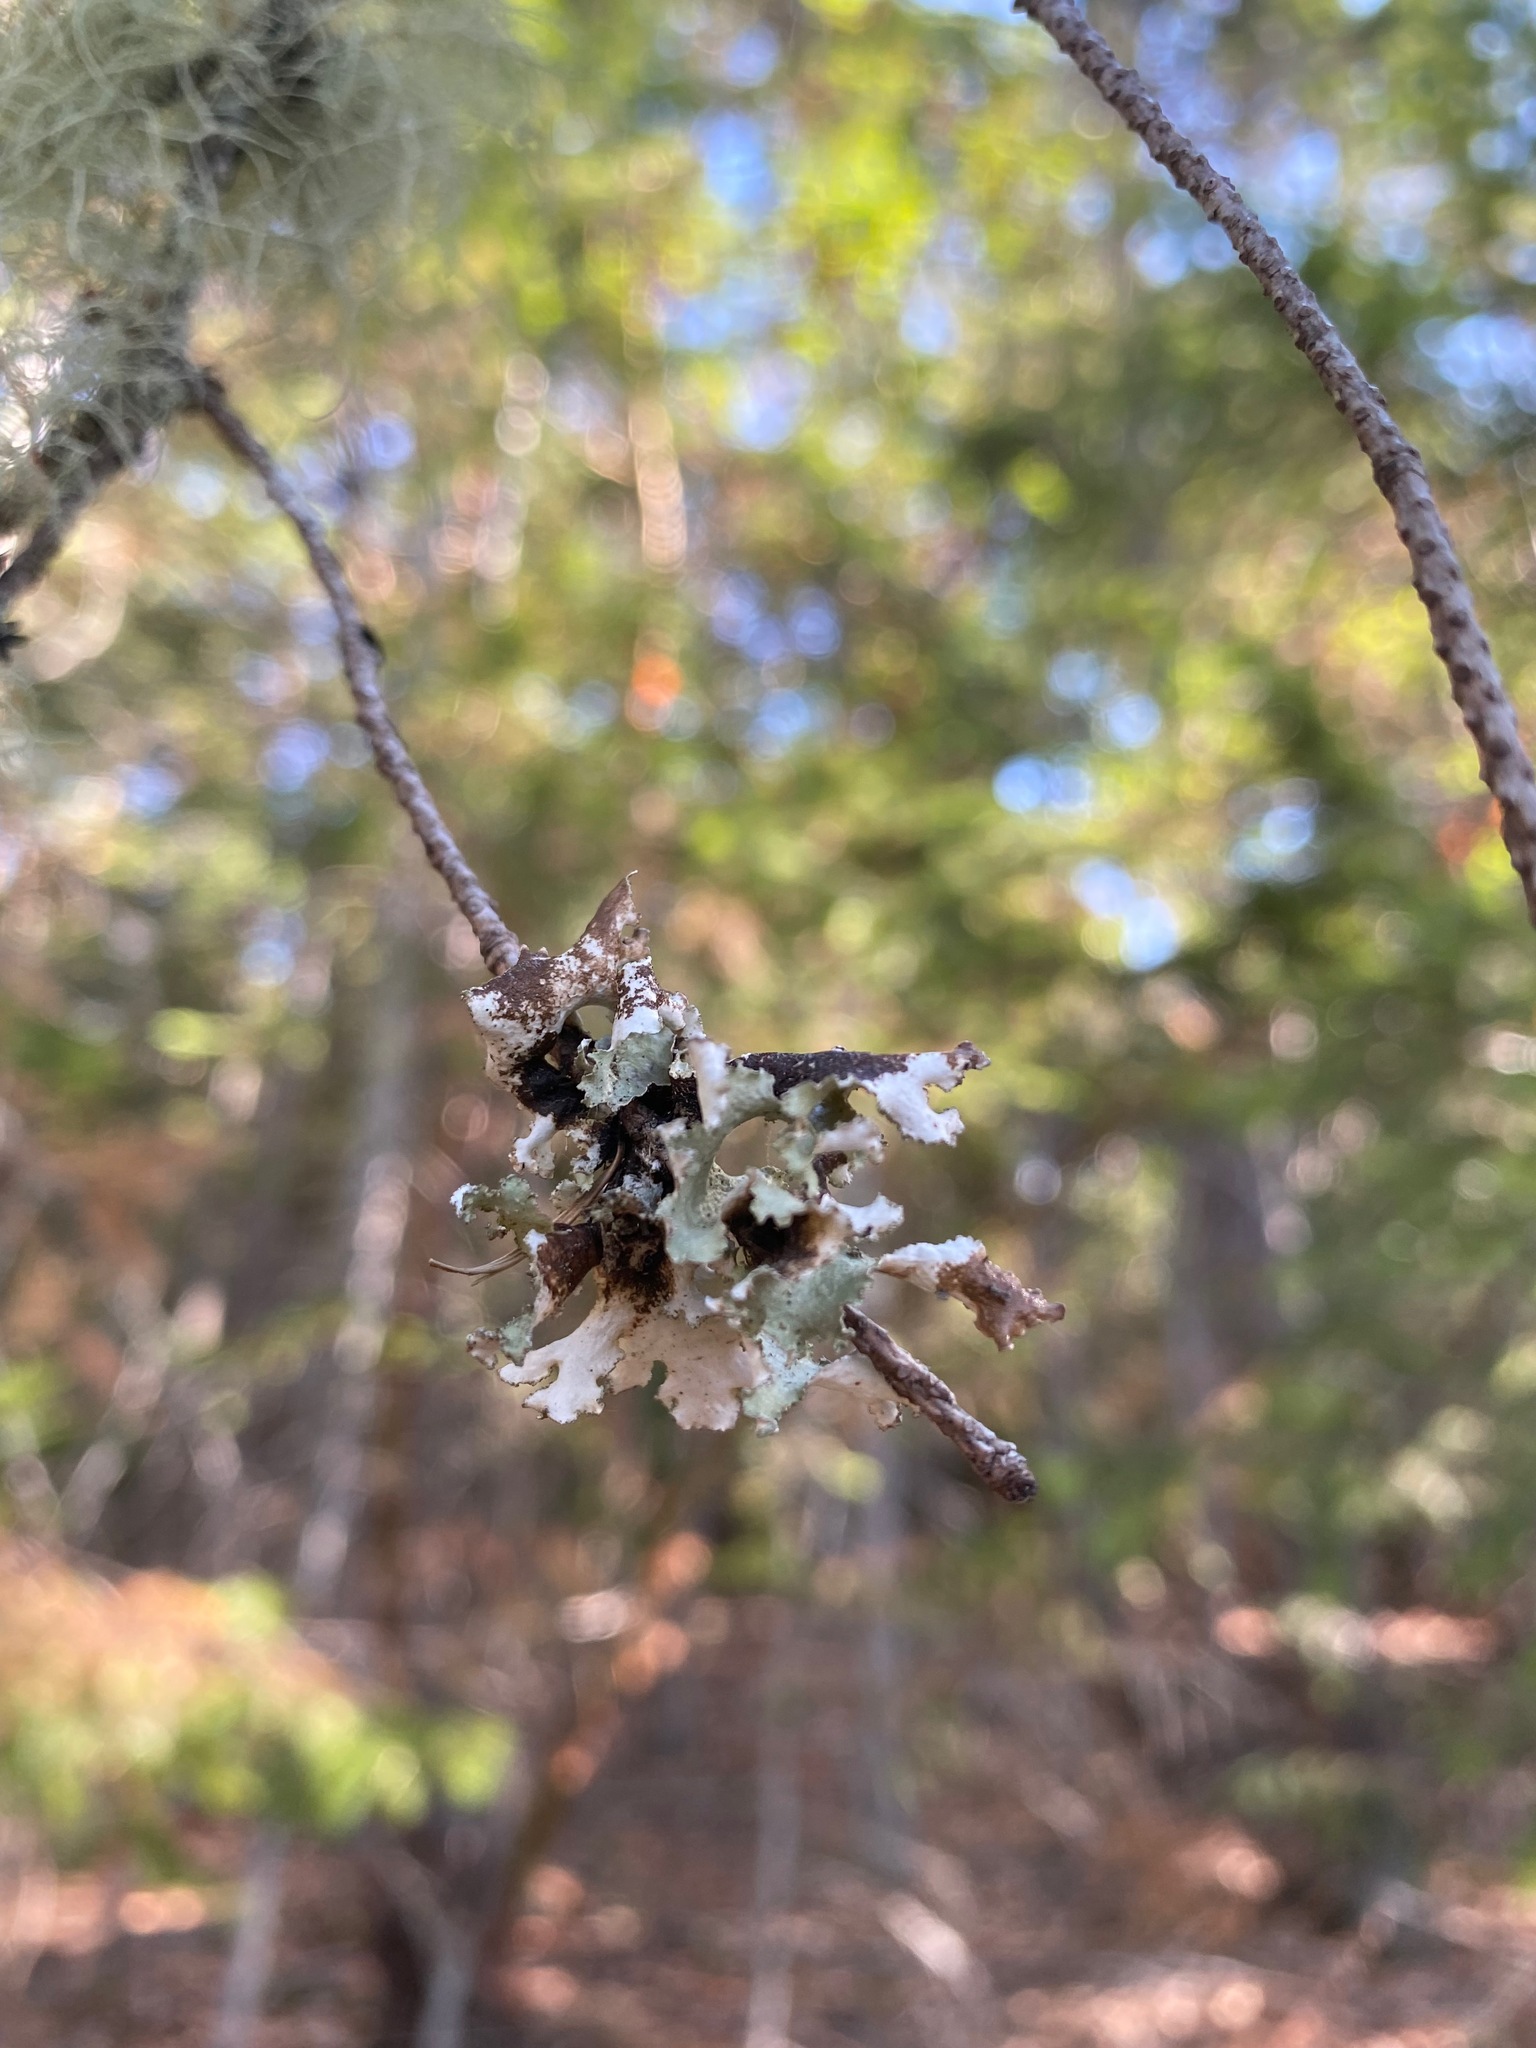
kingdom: Fungi
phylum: Ascomycota
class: Lecanoromycetes
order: Lecanorales
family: Parmeliaceae
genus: Platismatia
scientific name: Platismatia glauca
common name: Varied rag lichen
